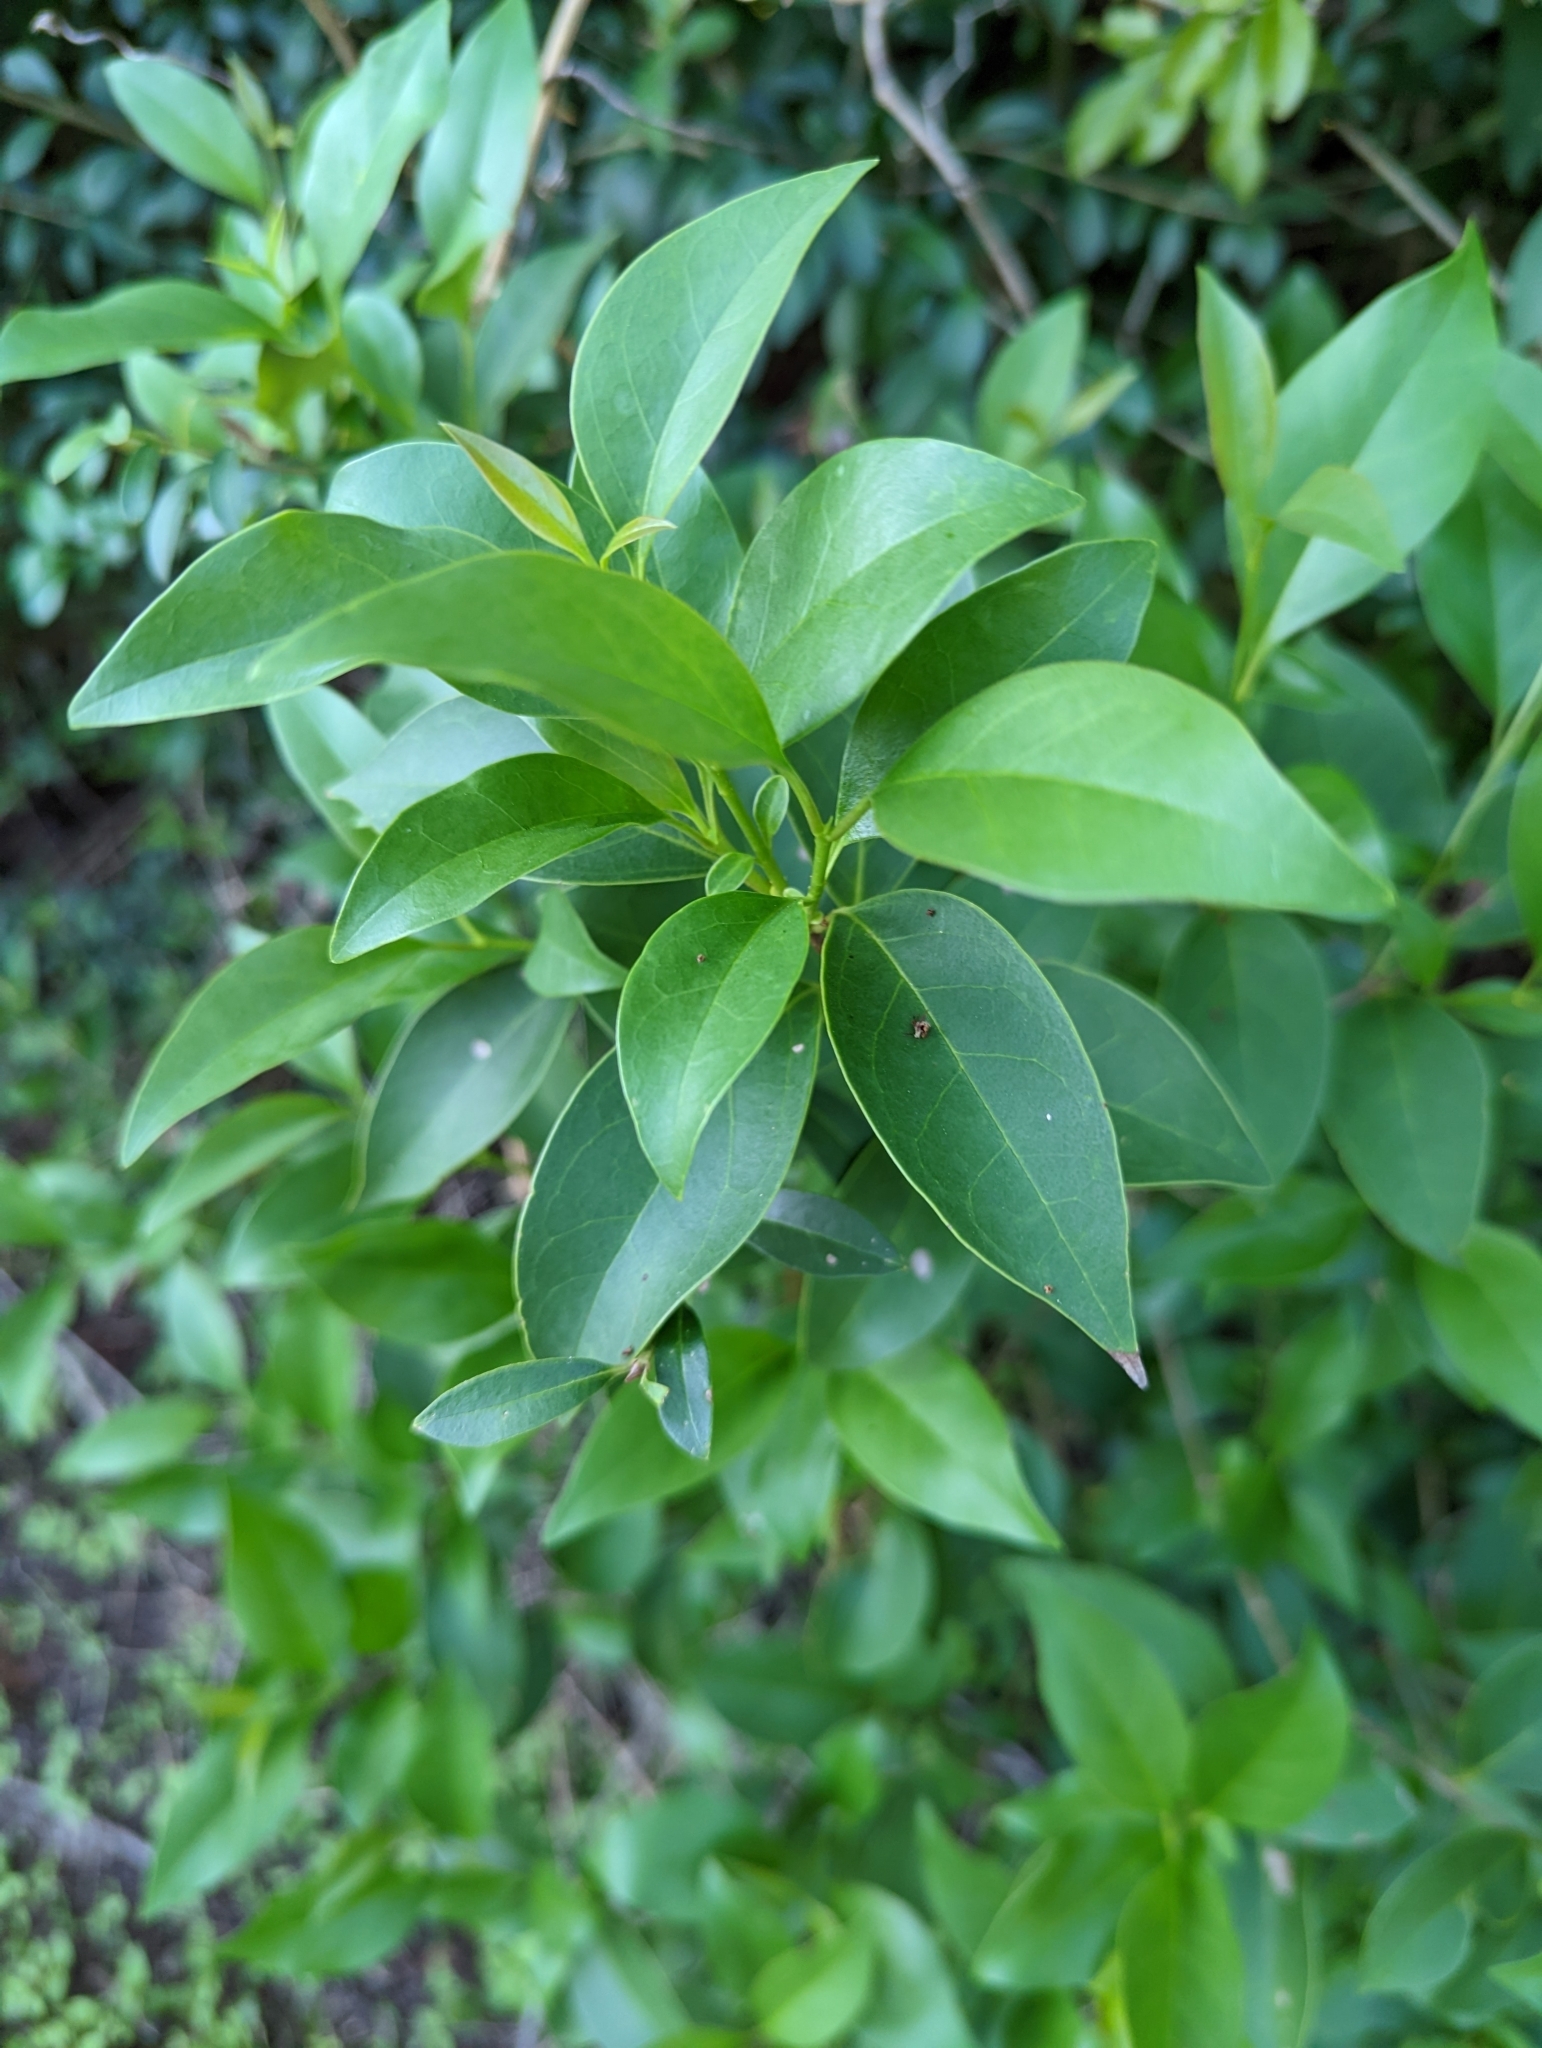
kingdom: Plantae
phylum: Tracheophyta
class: Magnoliopsida
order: Lamiales
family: Oleaceae
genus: Ligustrum
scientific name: Ligustrum lucidum
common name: Glossy privet
